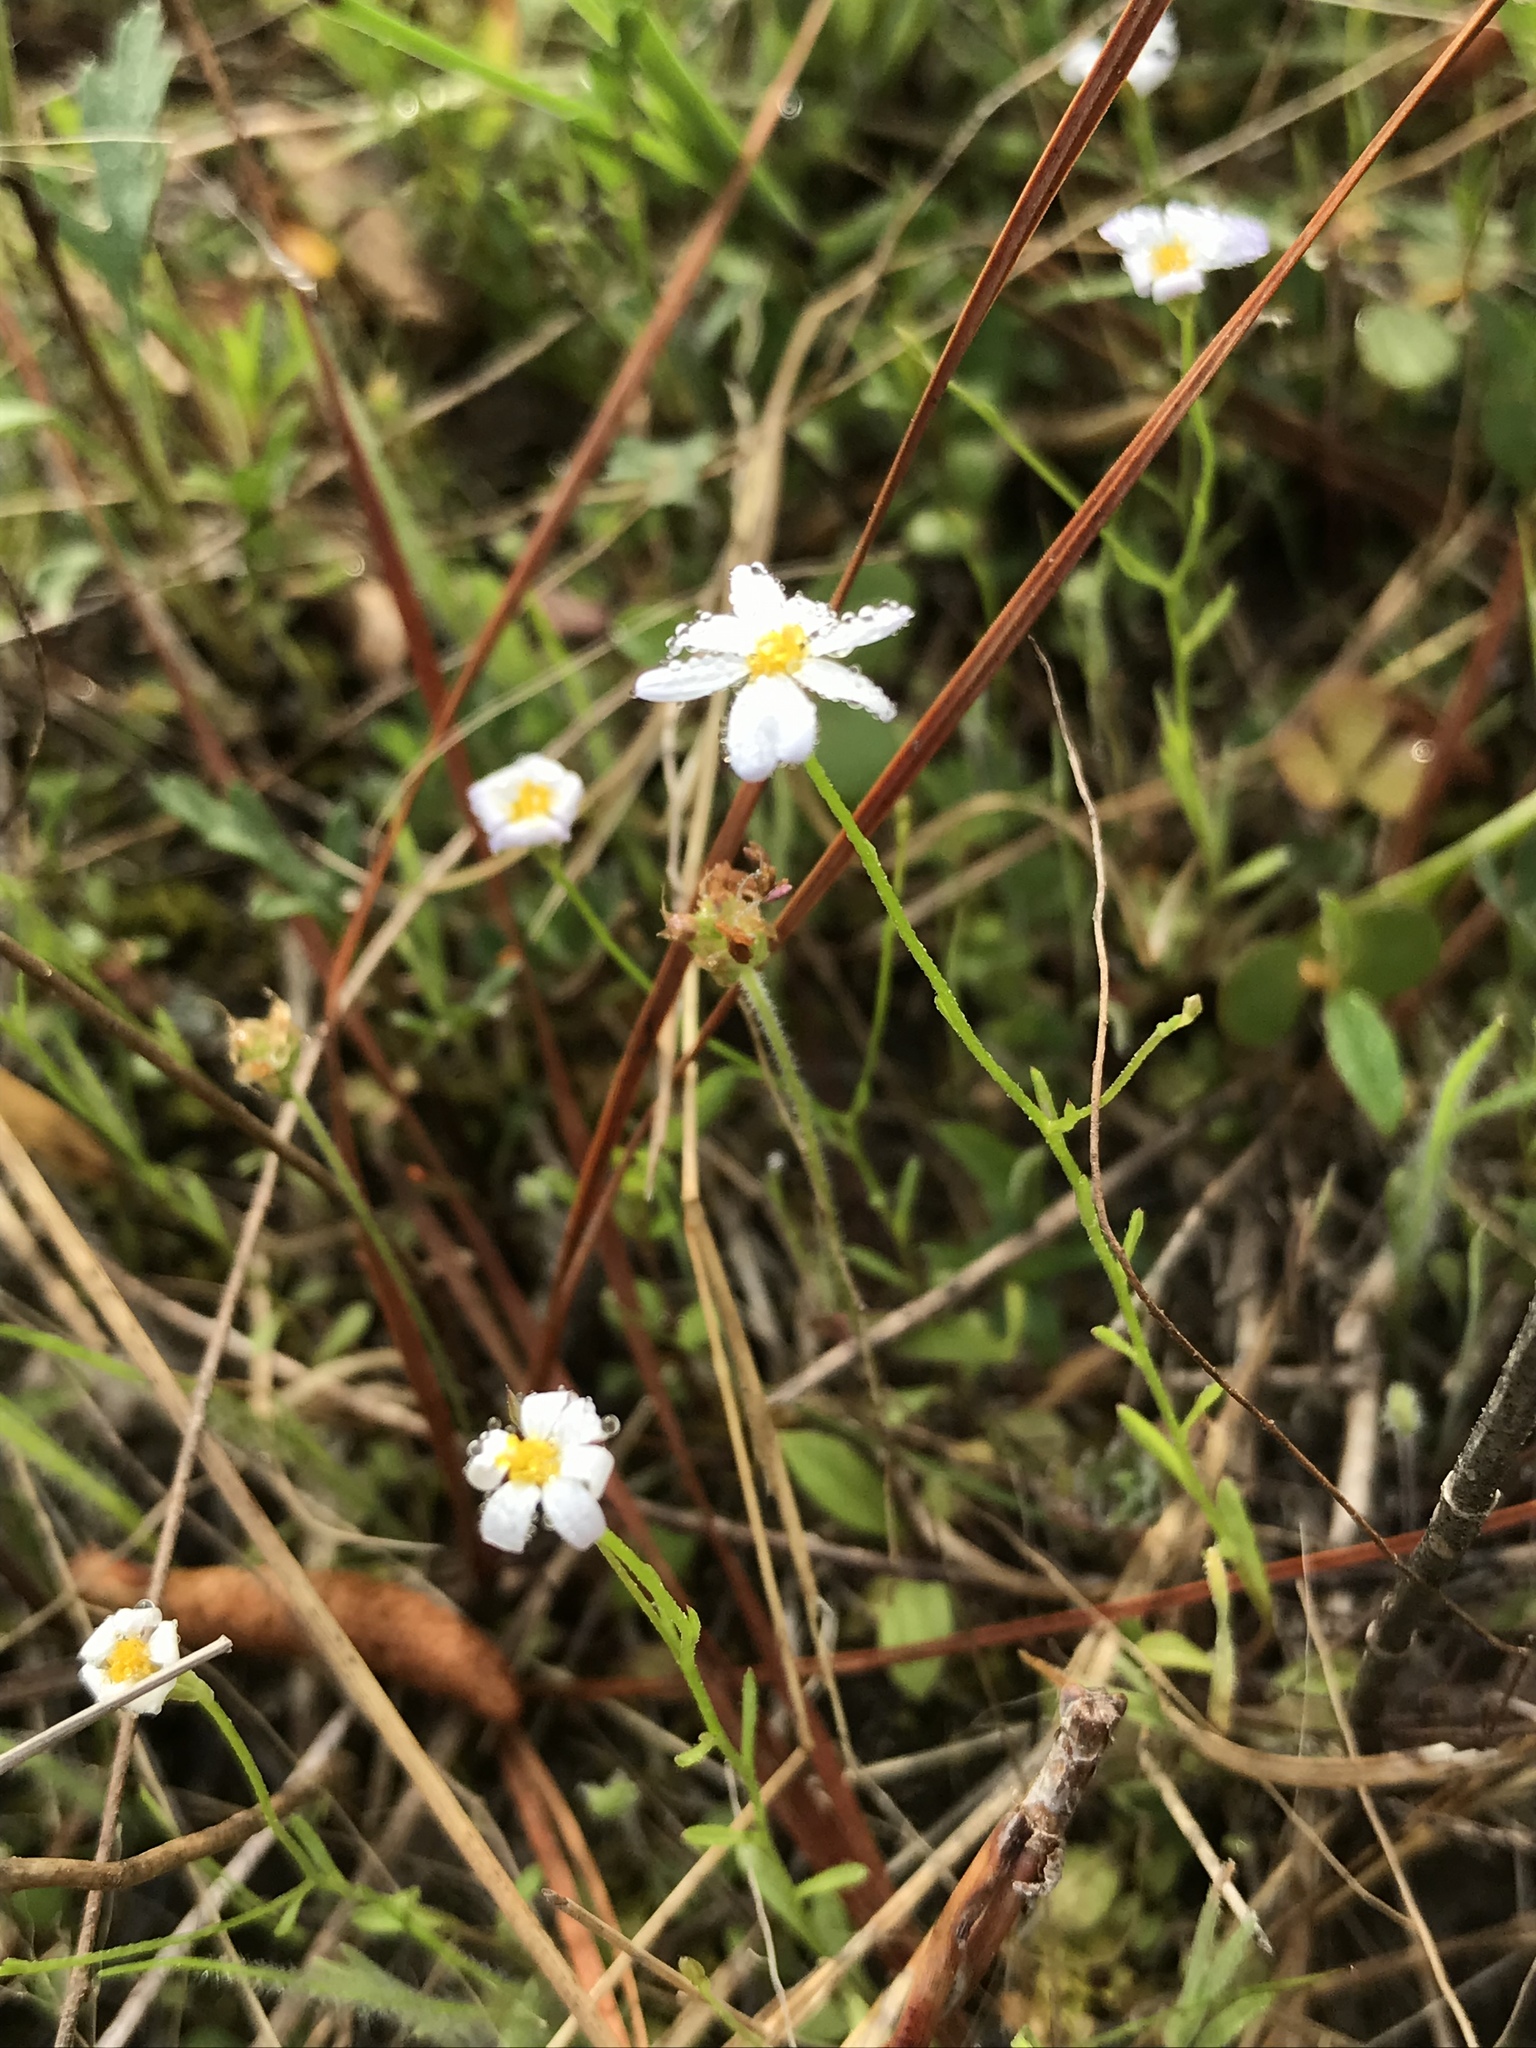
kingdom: Plantae
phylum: Tracheophyta
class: Magnoliopsida
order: Asterales
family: Asteraceae
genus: Chaetopappa
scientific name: Chaetopappa asteroides
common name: Tiny lazy daisy
